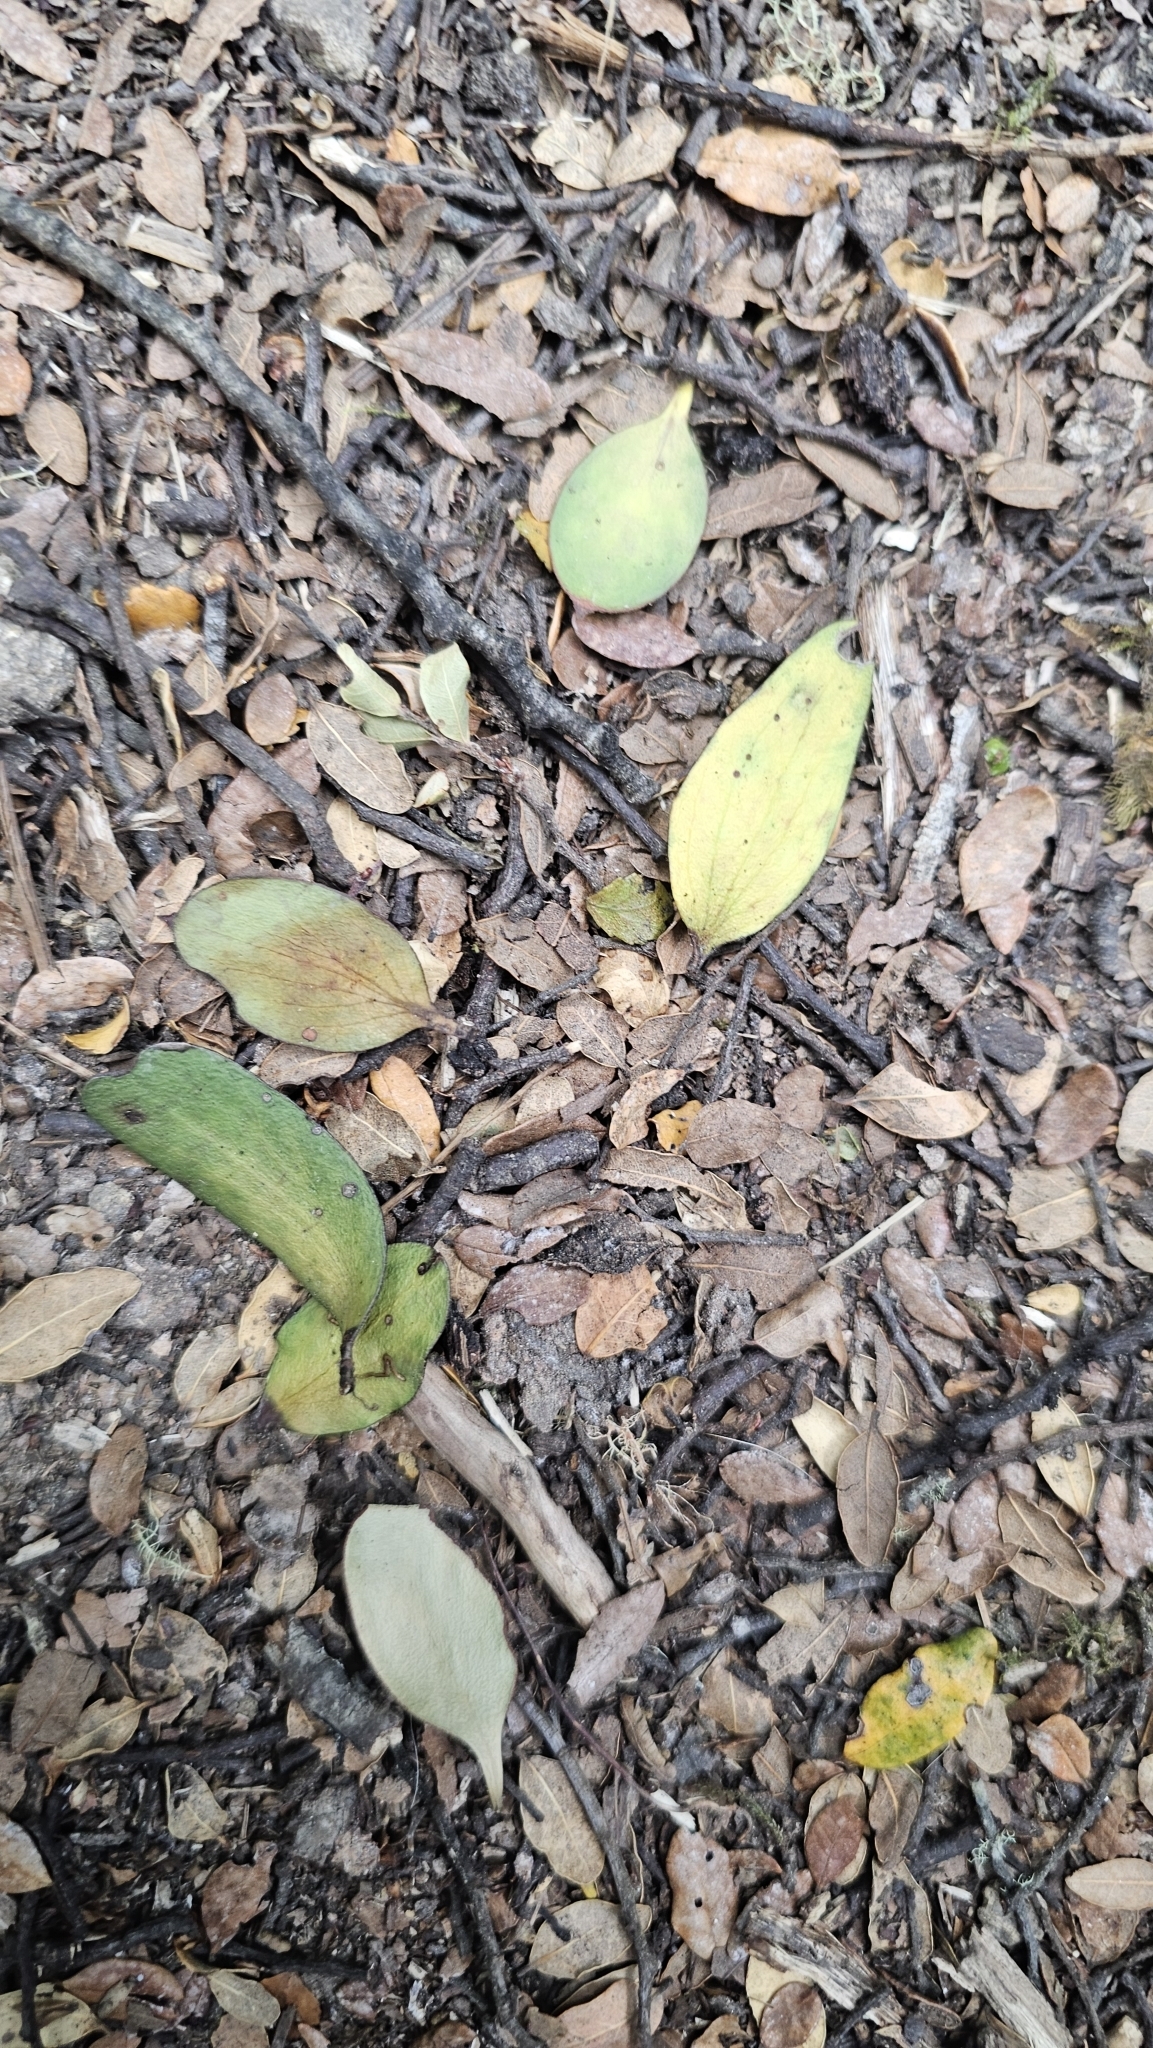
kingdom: Plantae
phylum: Tracheophyta
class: Magnoliopsida
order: Santalales
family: Loranthaceae
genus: Alepis
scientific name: Alepis flavida
